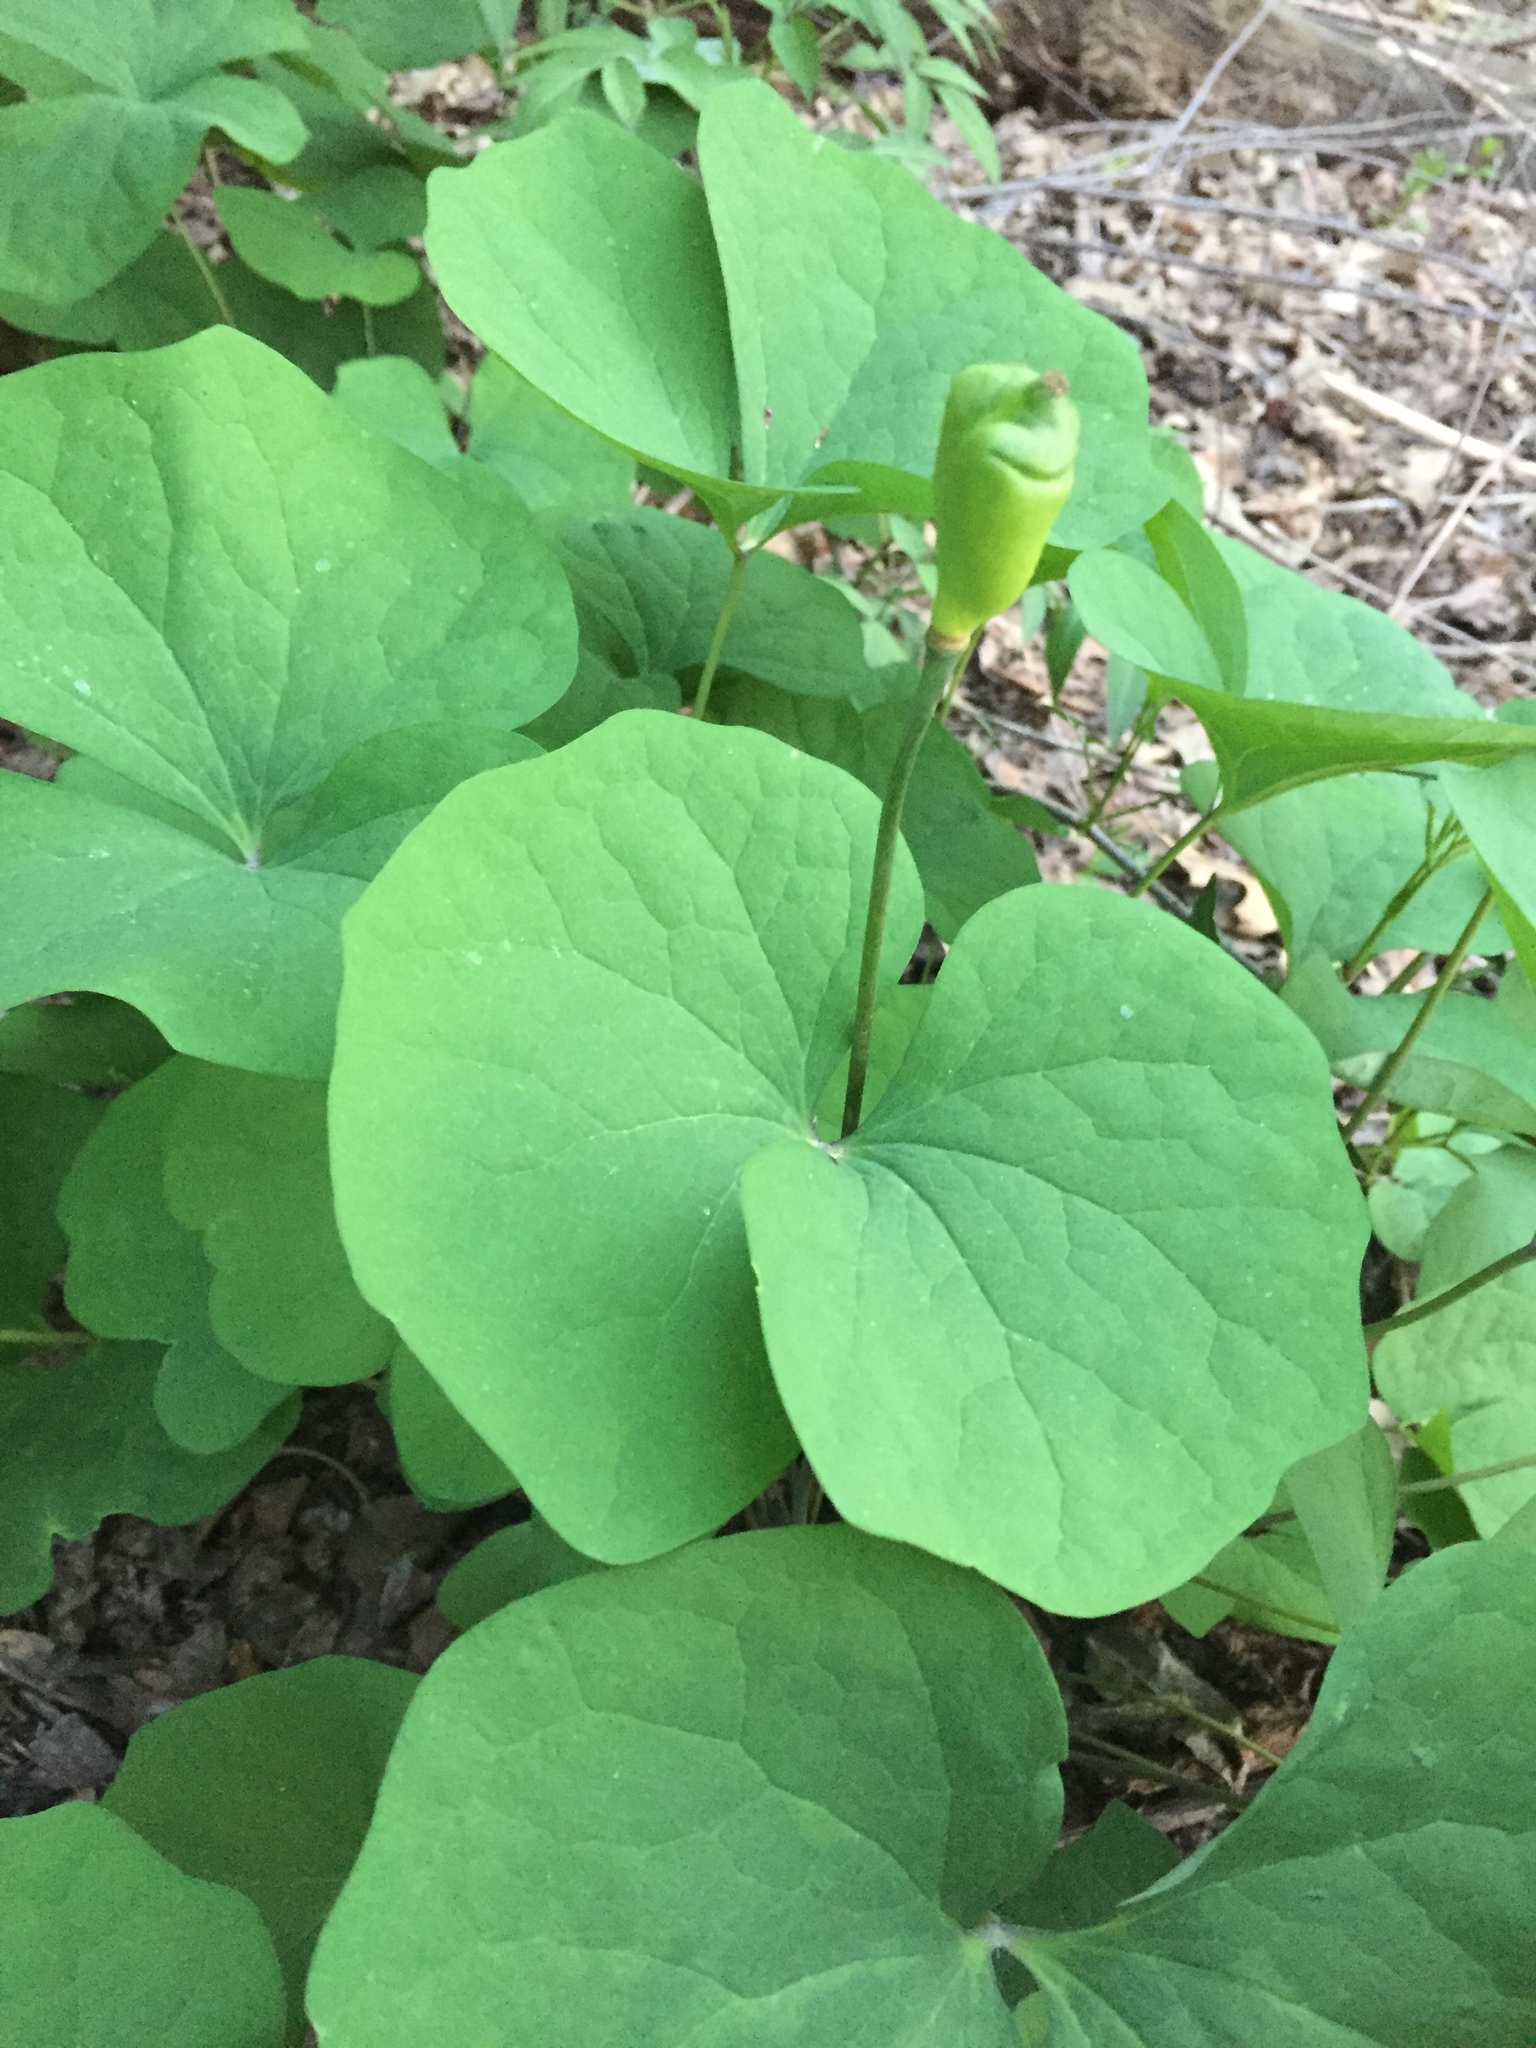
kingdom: Plantae
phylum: Tracheophyta
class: Magnoliopsida
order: Ranunculales
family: Berberidaceae
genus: Jeffersonia
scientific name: Jeffersonia diphylla
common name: Rheumatism-root
